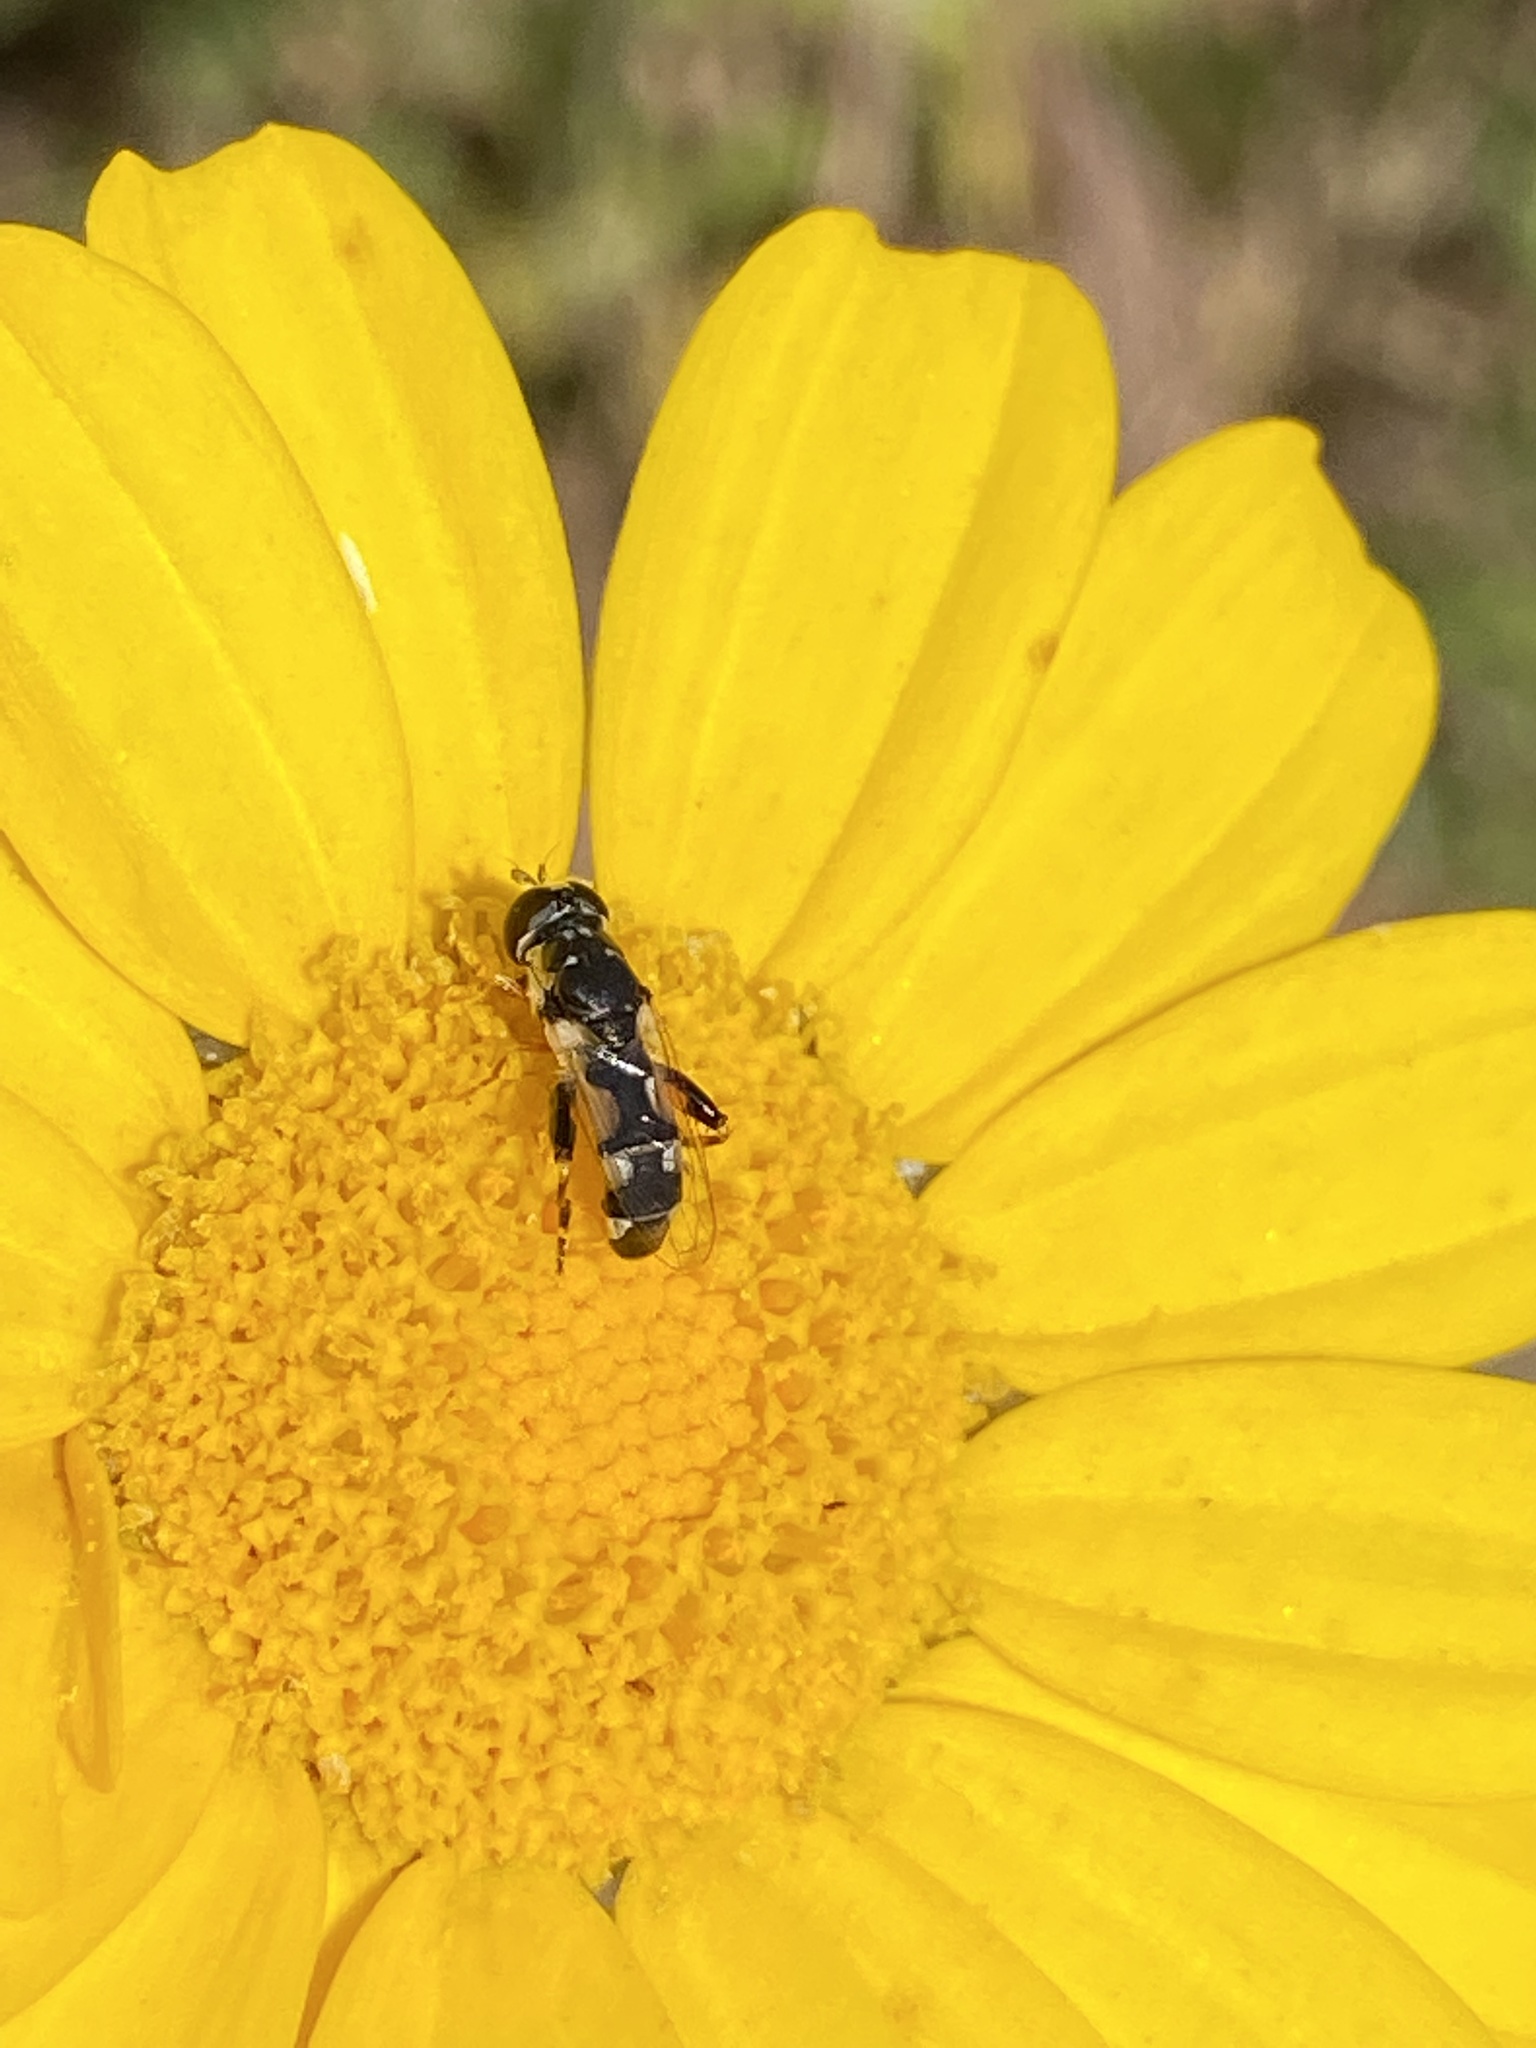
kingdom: Animalia
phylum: Arthropoda
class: Insecta
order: Diptera
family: Syrphidae
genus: Syritta
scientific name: Syritta flaviventris
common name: Syrphid fly
